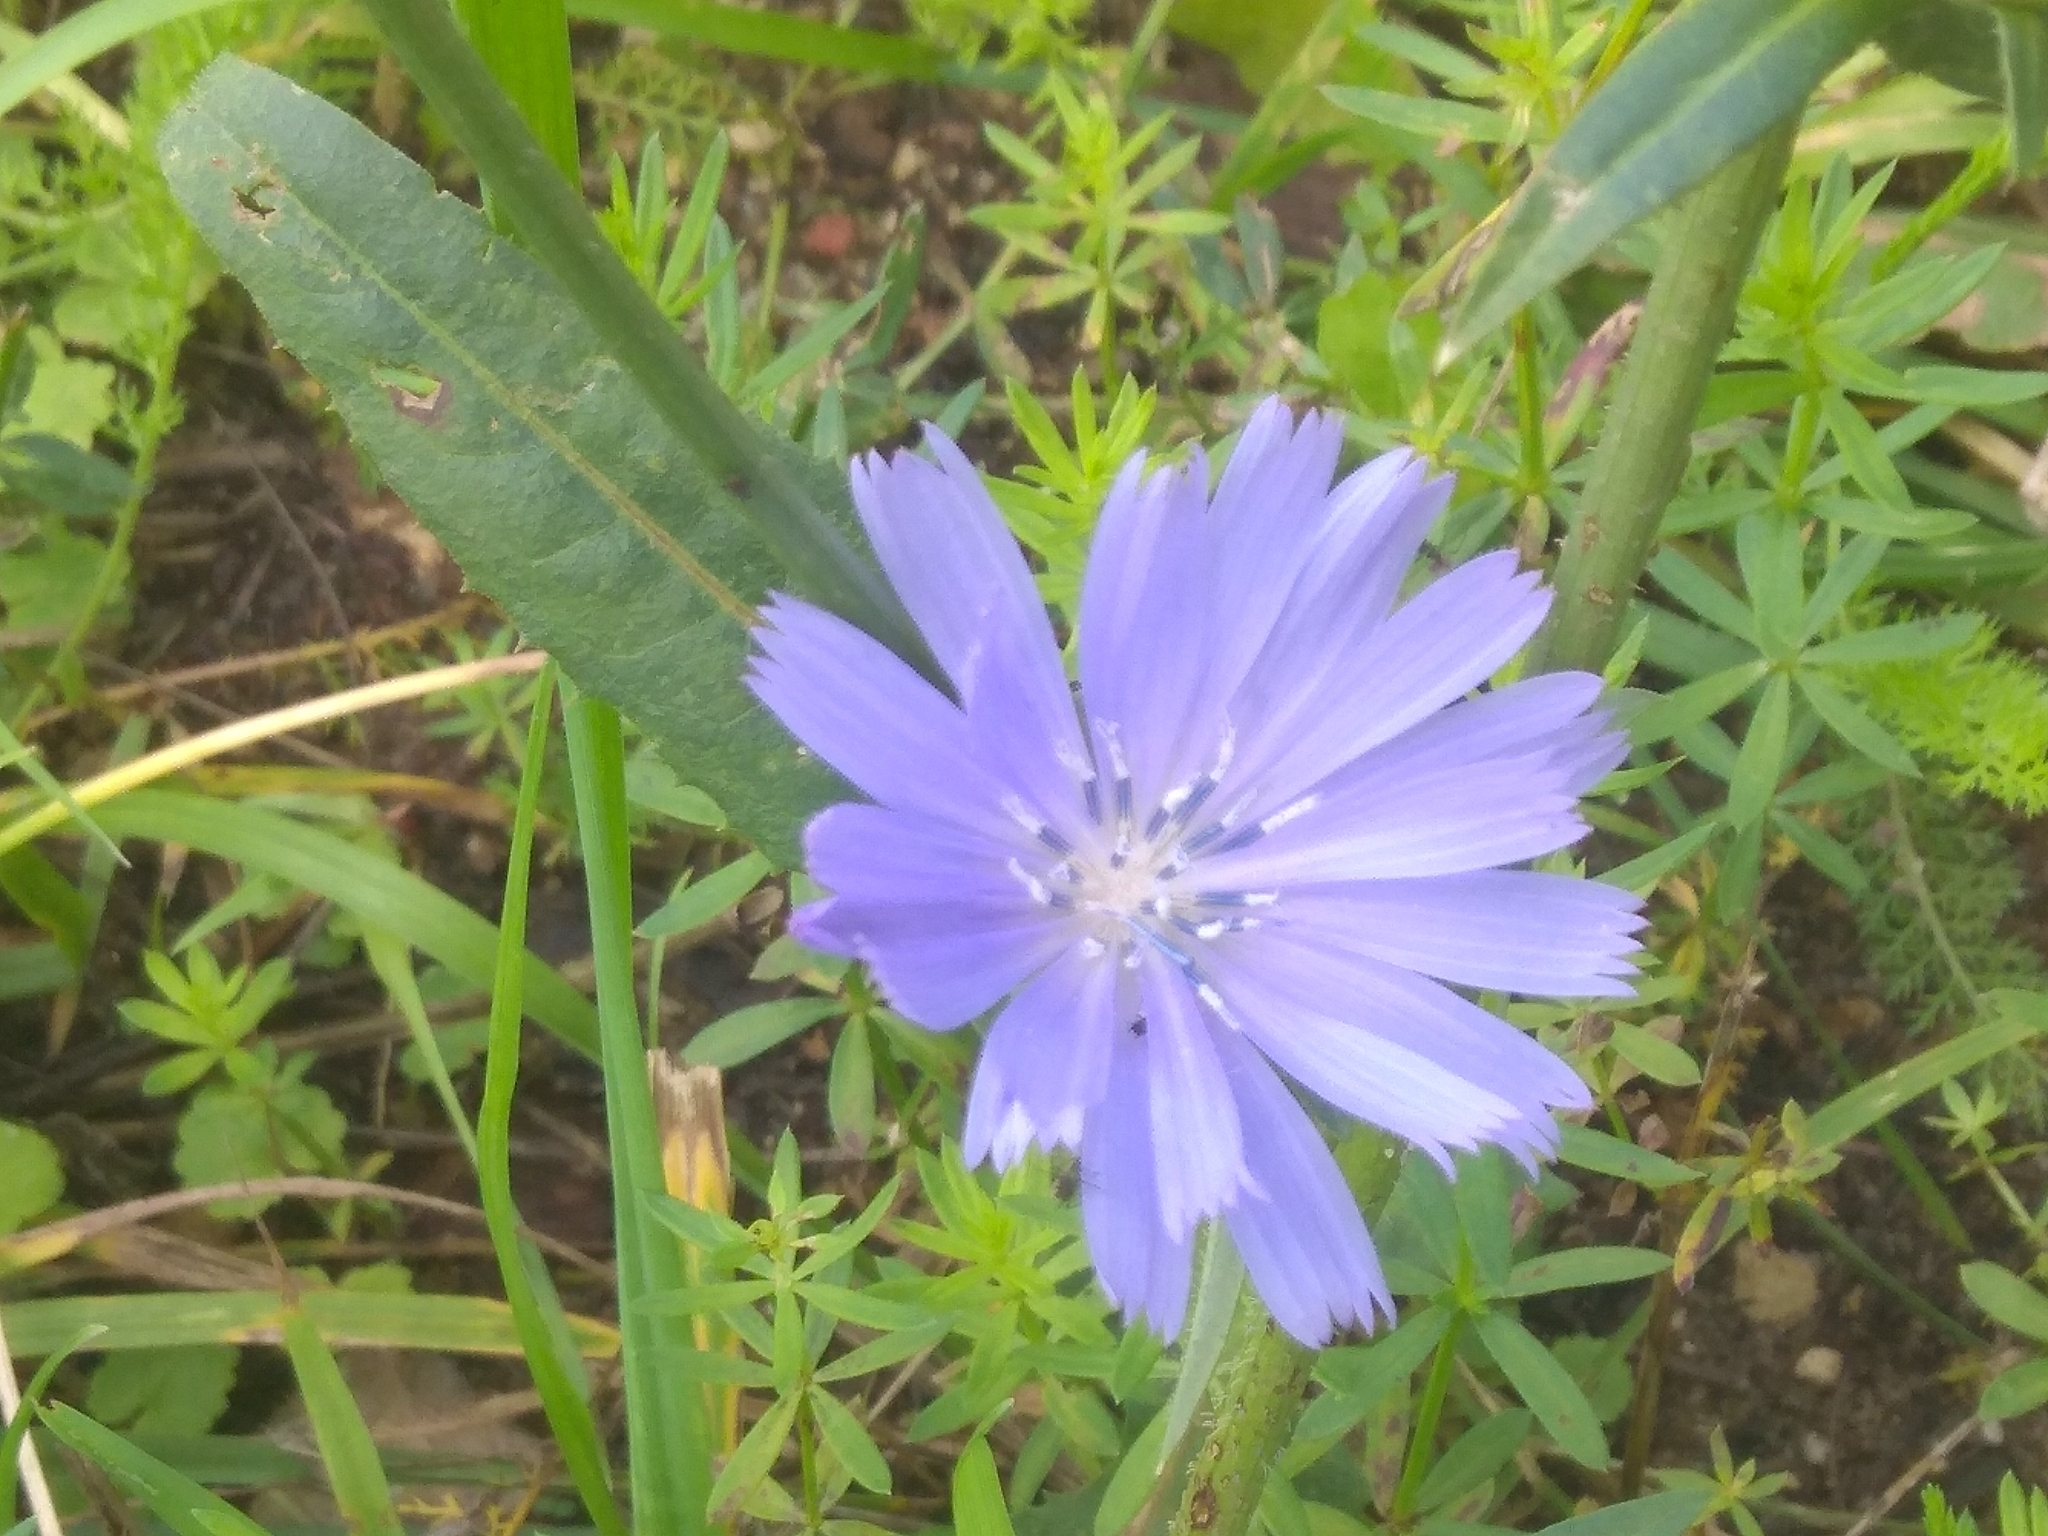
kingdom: Plantae
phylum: Tracheophyta
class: Magnoliopsida
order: Asterales
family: Asteraceae
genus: Cichorium
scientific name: Cichorium intybus
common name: Chicory
